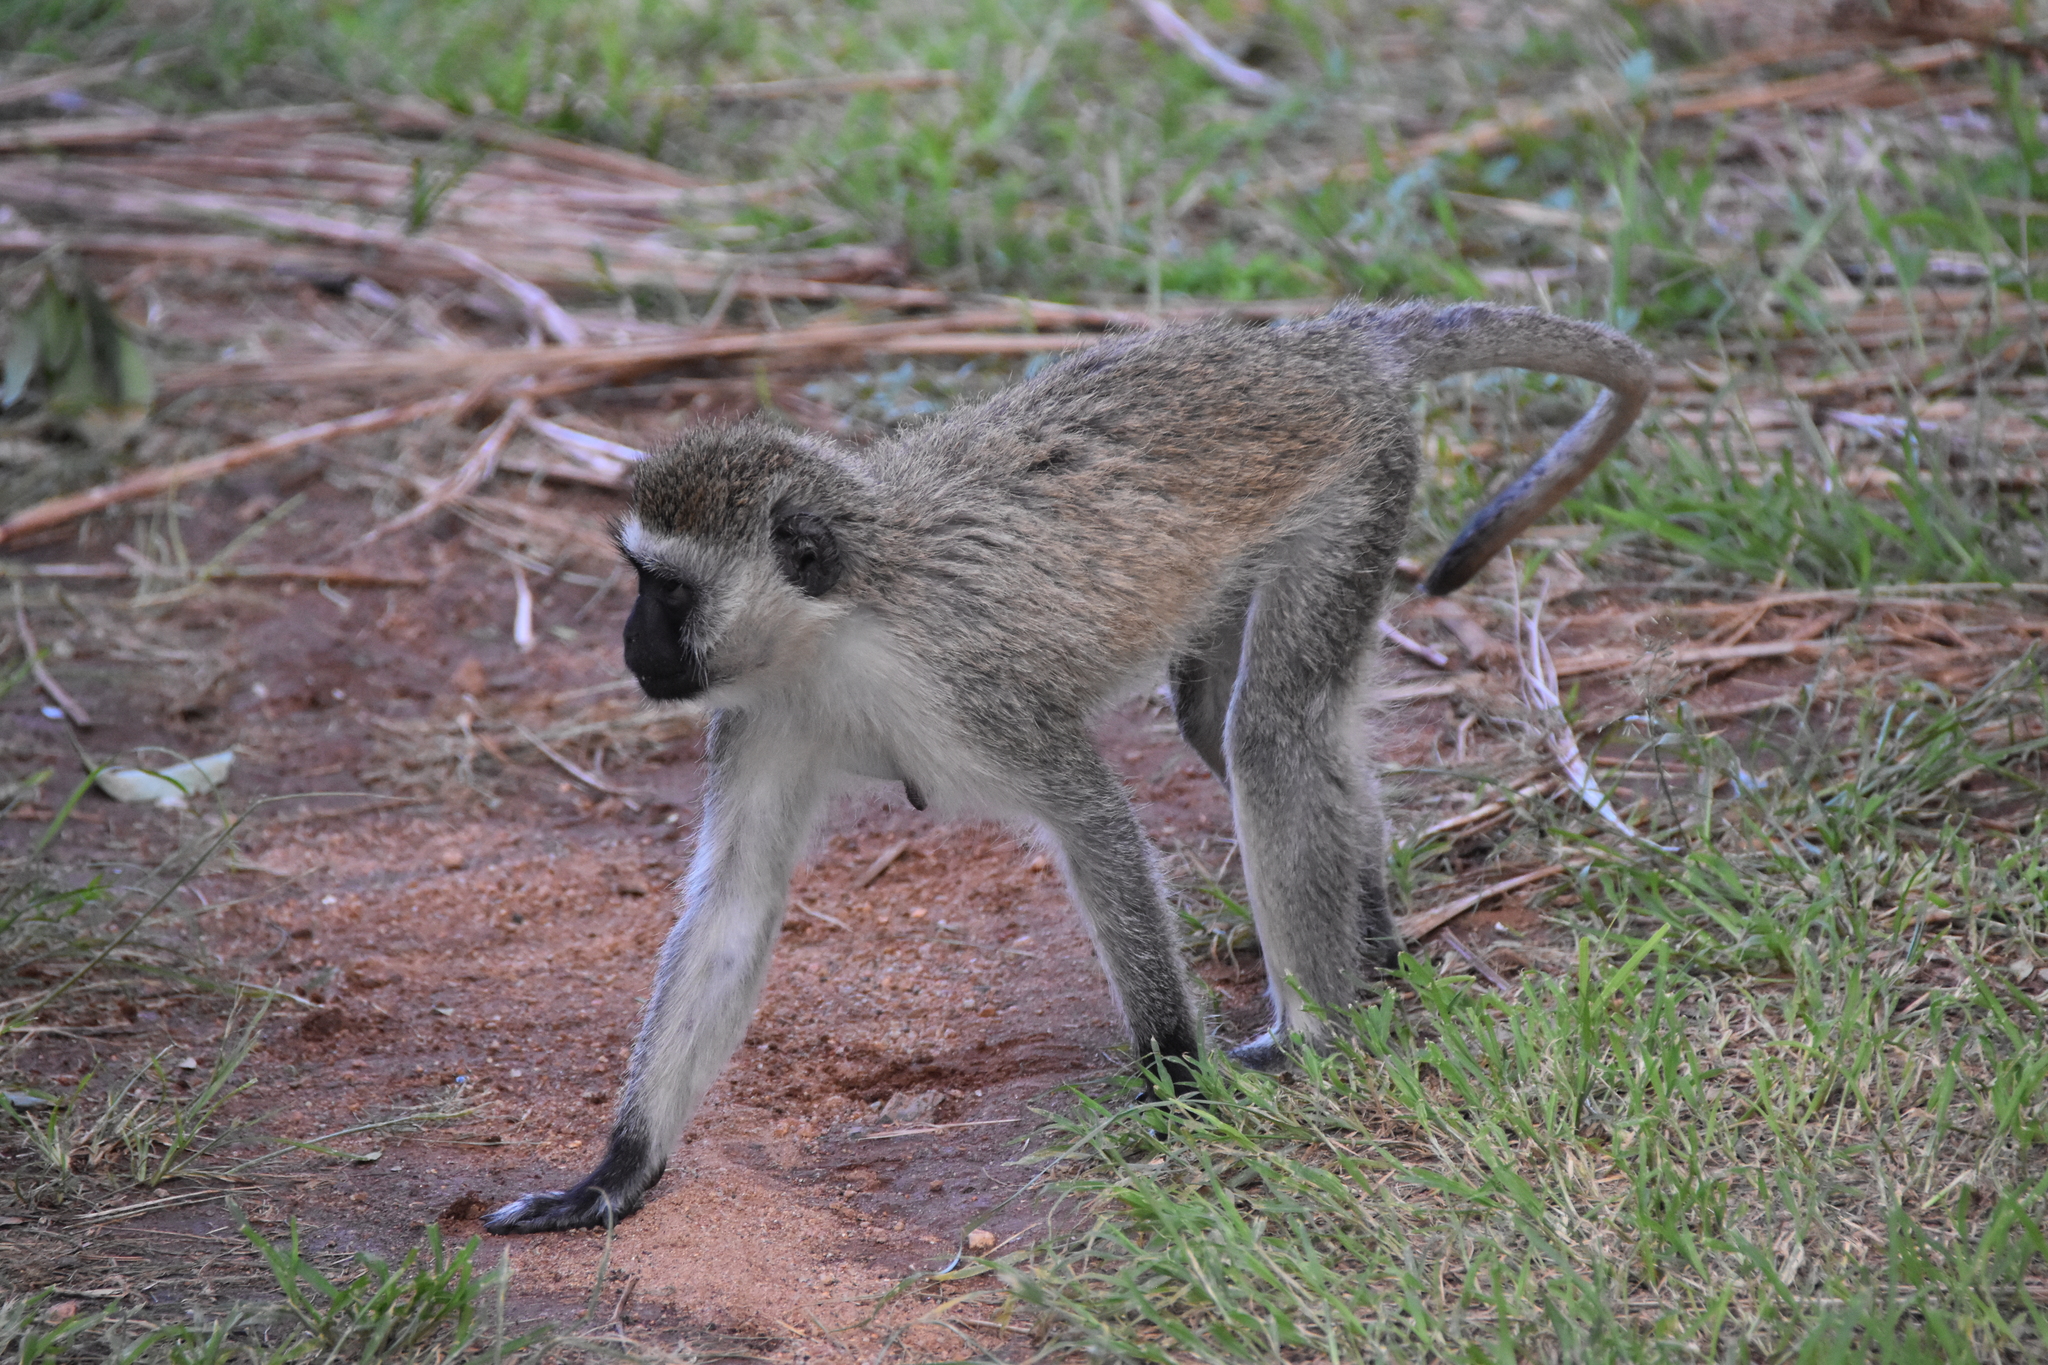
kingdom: Animalia
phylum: Chordata
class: Mammalia
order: Primates
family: Cercopithecidae
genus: Chlorocebus
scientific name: Chlorocebus pygerythrus
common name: Vervet monkey
